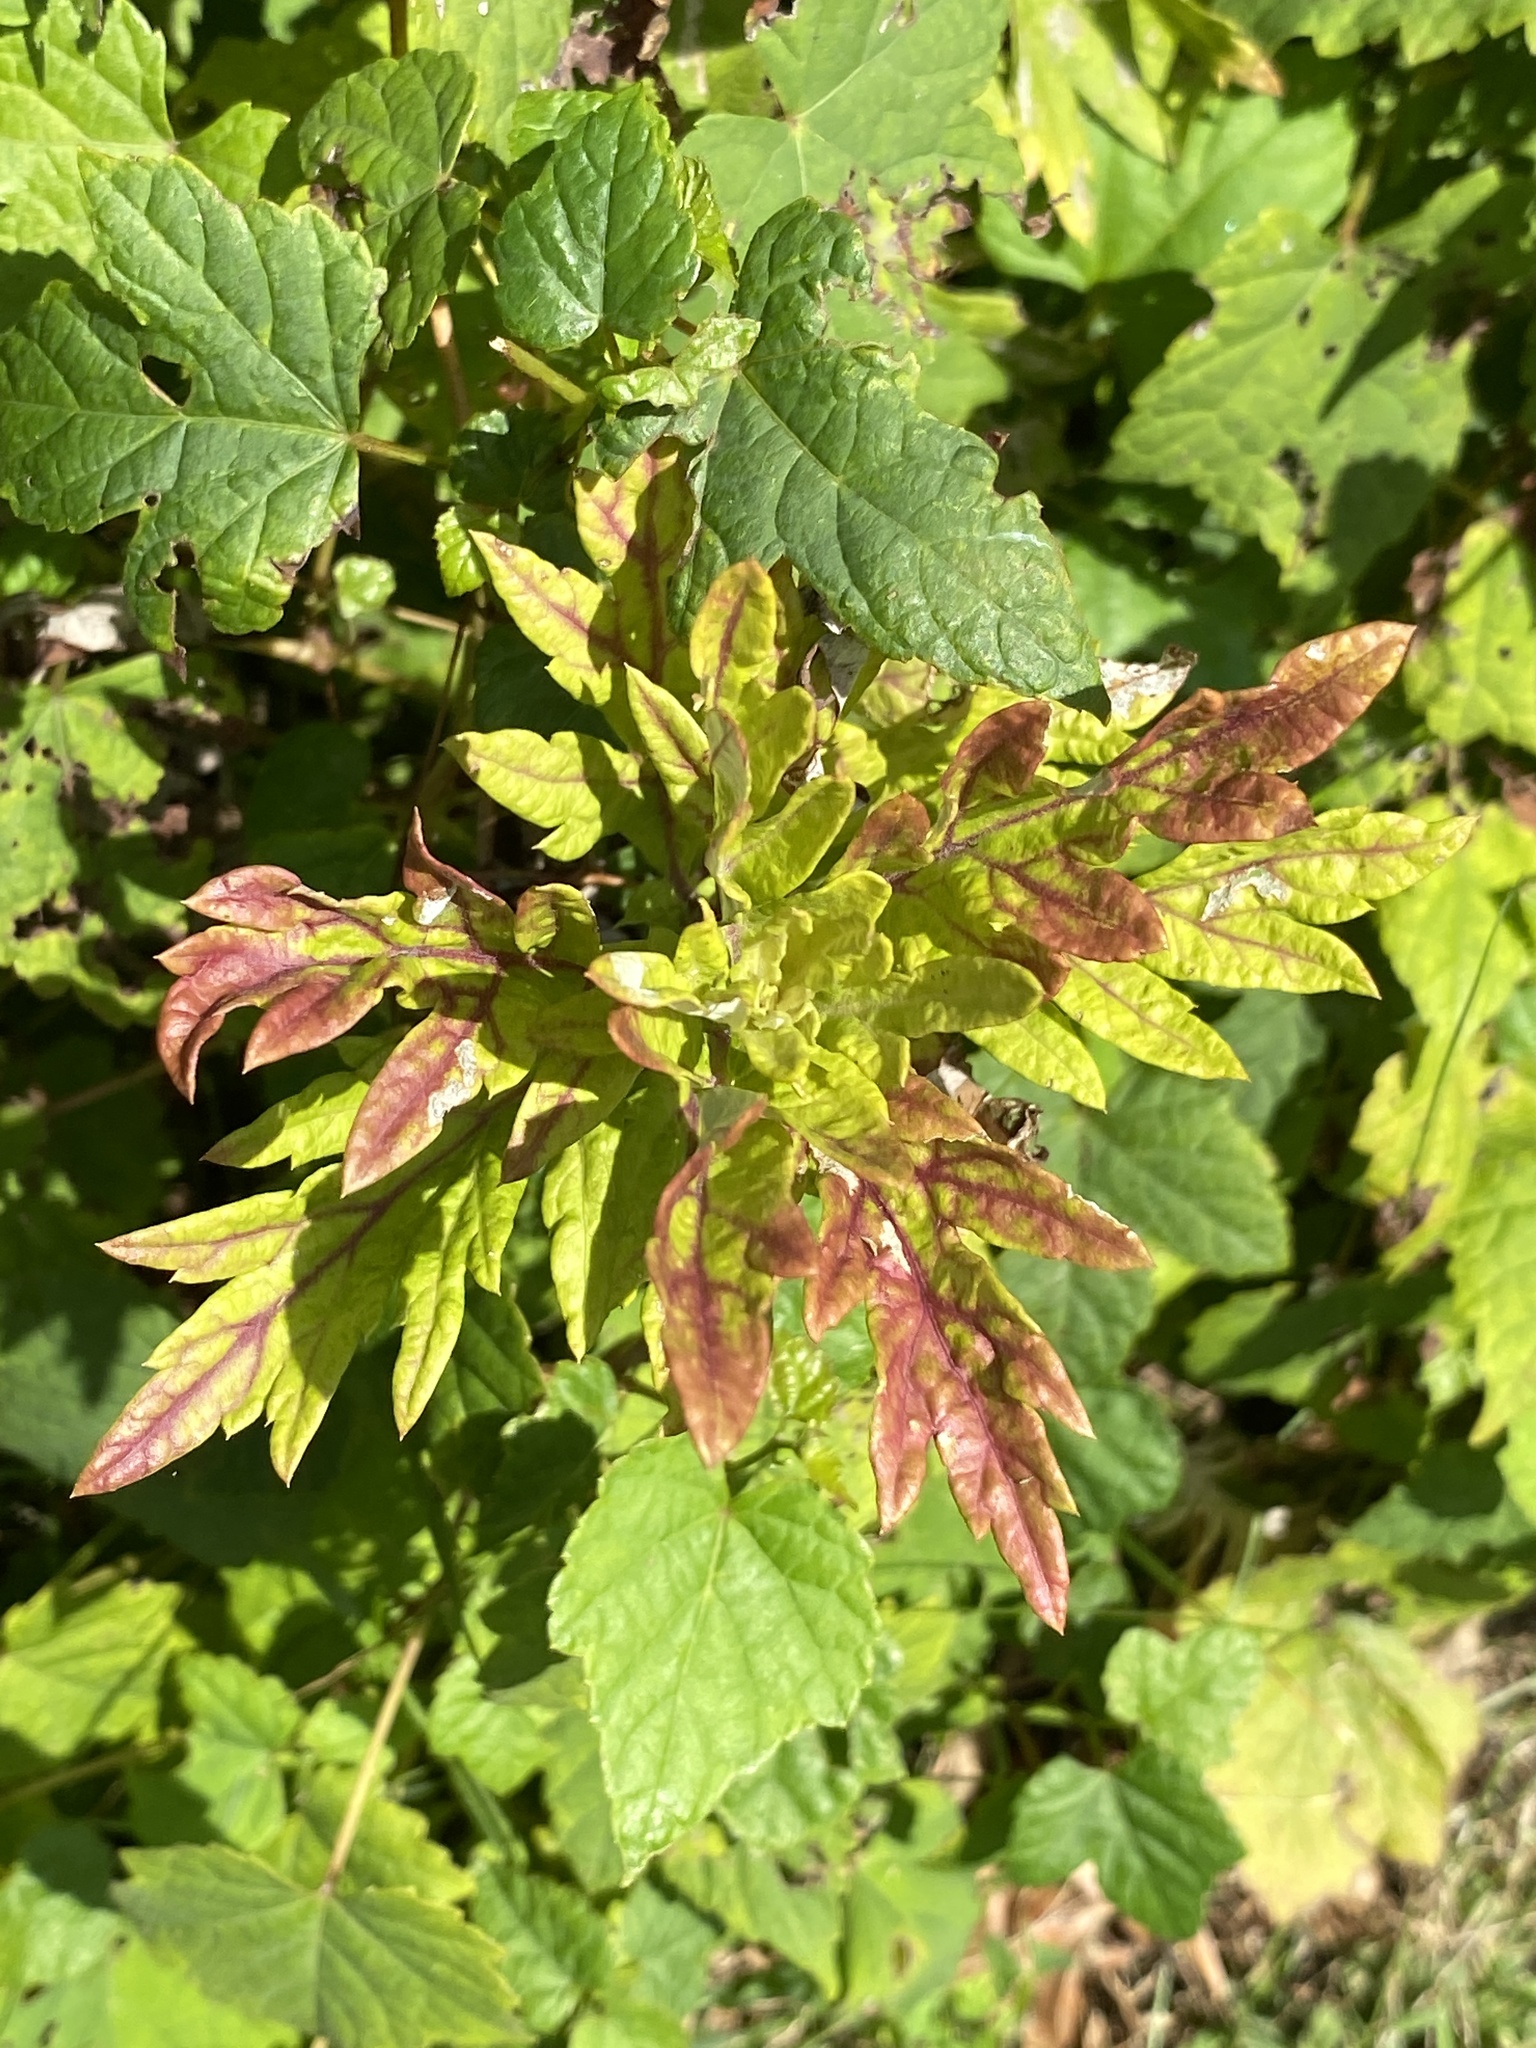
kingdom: Plantae
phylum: Tracheophyta
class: Magnoliopsida
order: Asterales
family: Asteraceae
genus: Artemisia
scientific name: Artemisia vulgaris
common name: Mugwort
